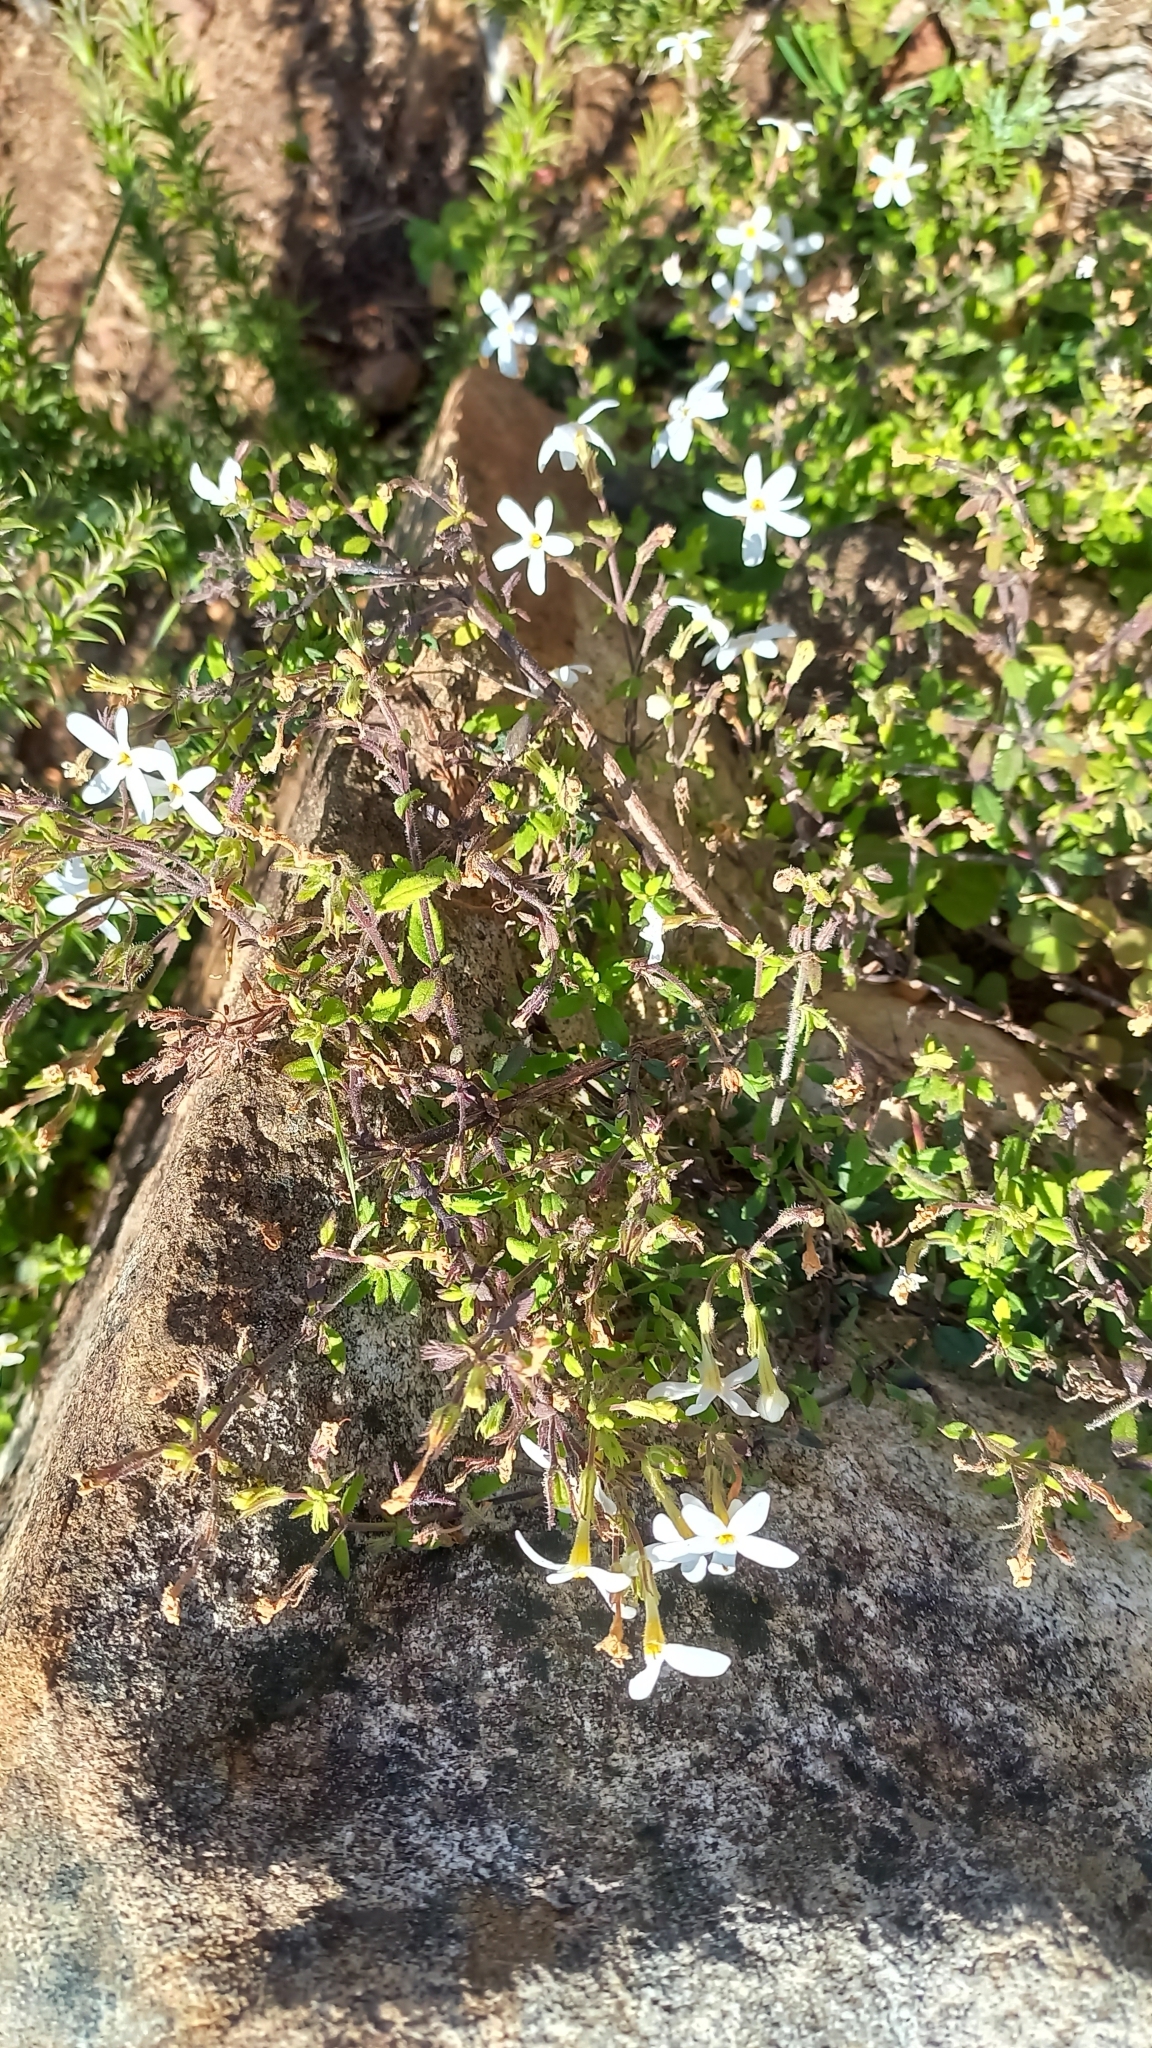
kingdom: Plantae
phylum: Tracheophyta
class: Magnoliopsida
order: Lamiales
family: Scrophulariaceae
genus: Chaenostoma
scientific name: Chaenostoma hispidum
